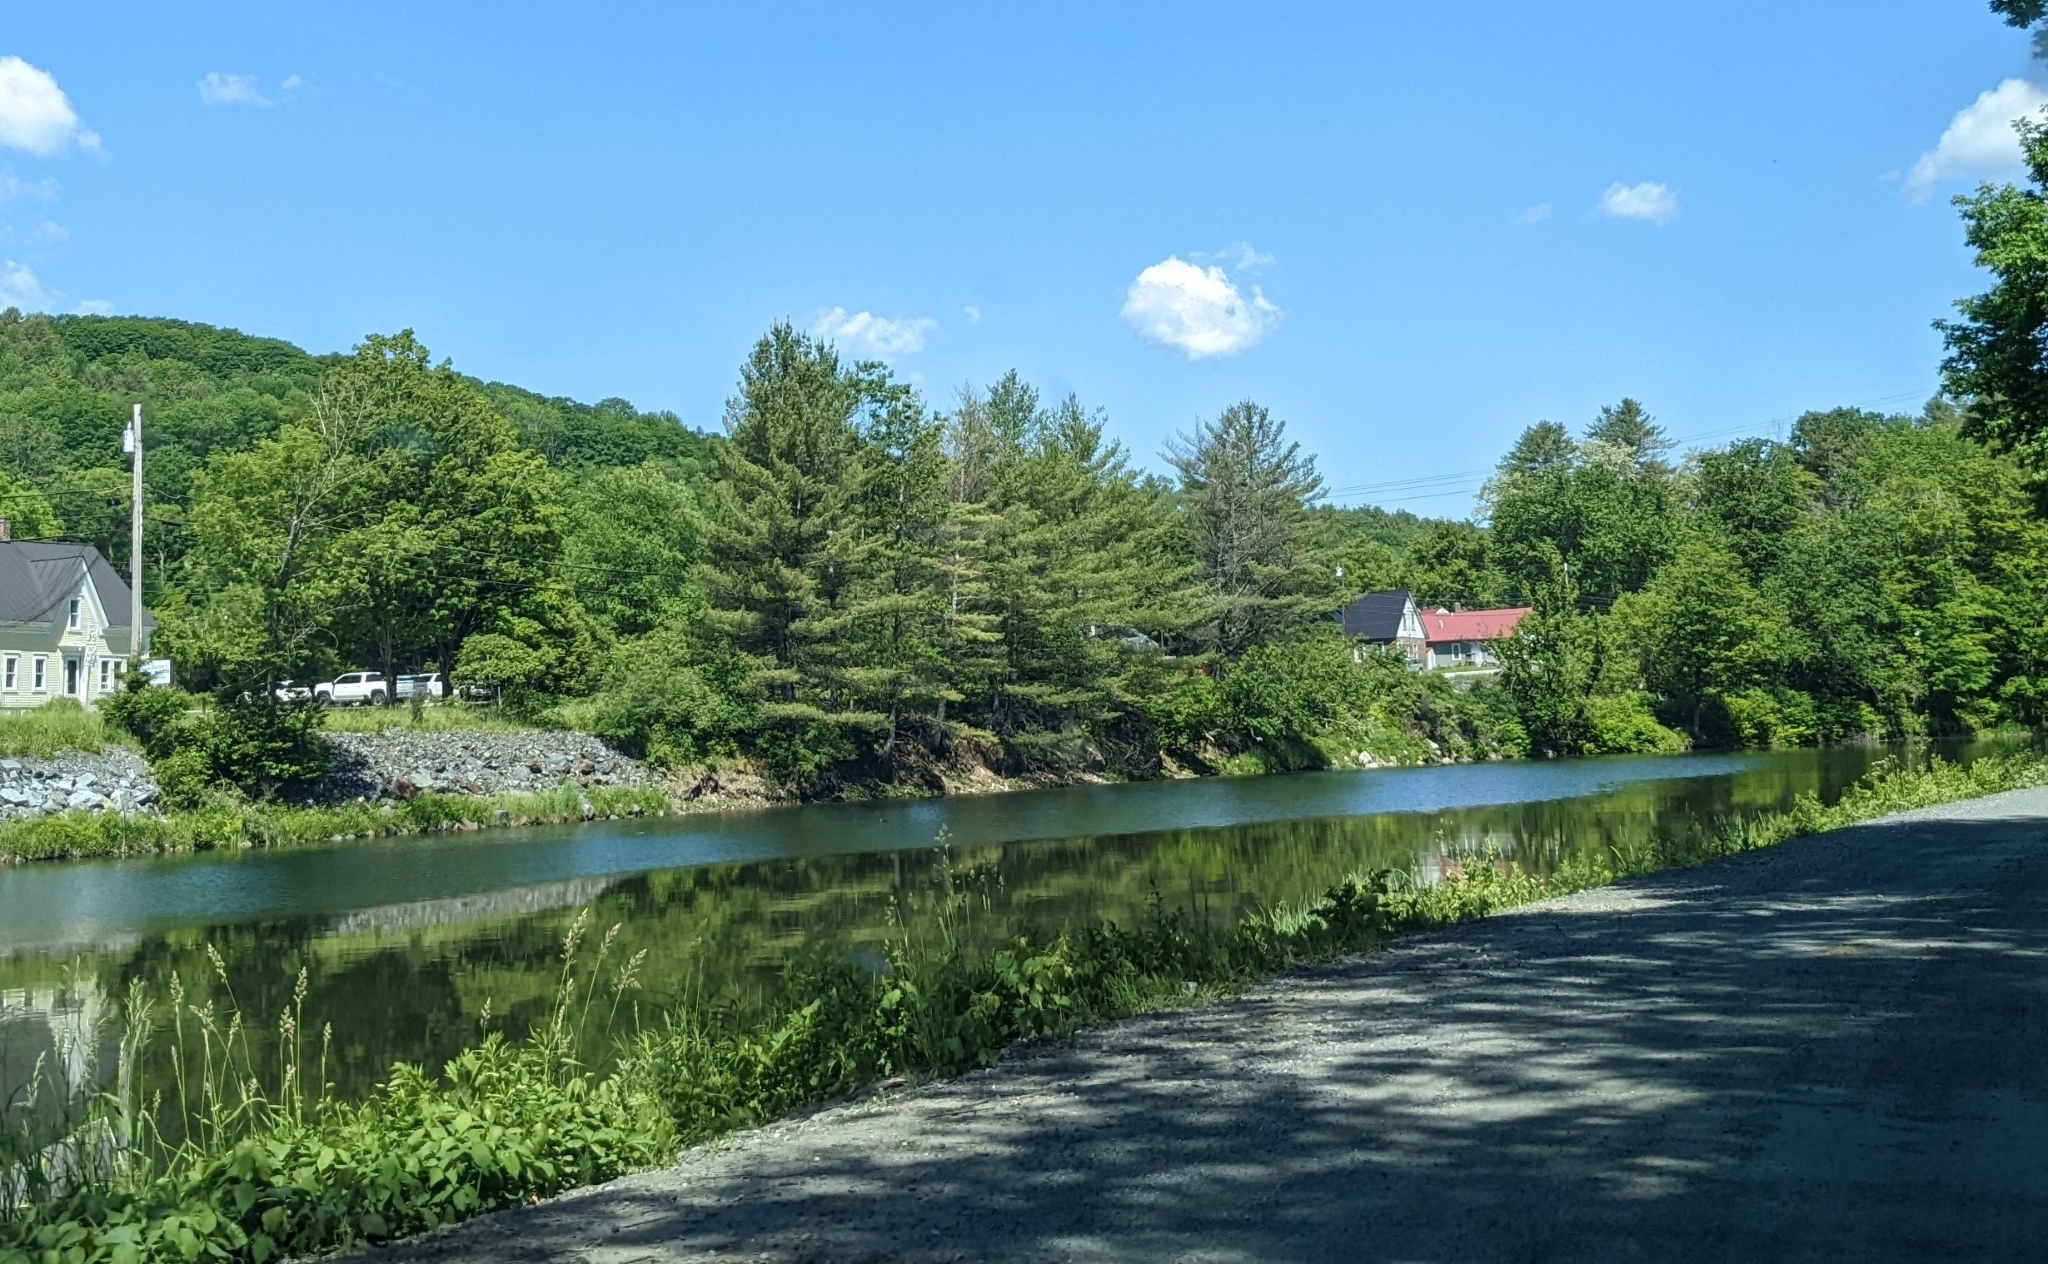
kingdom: Plantae
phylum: Tracheophyta
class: Pinopsida
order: Pinales
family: Pinaceae
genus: Pinus
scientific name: Pinus strobus
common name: Weymouth pine
